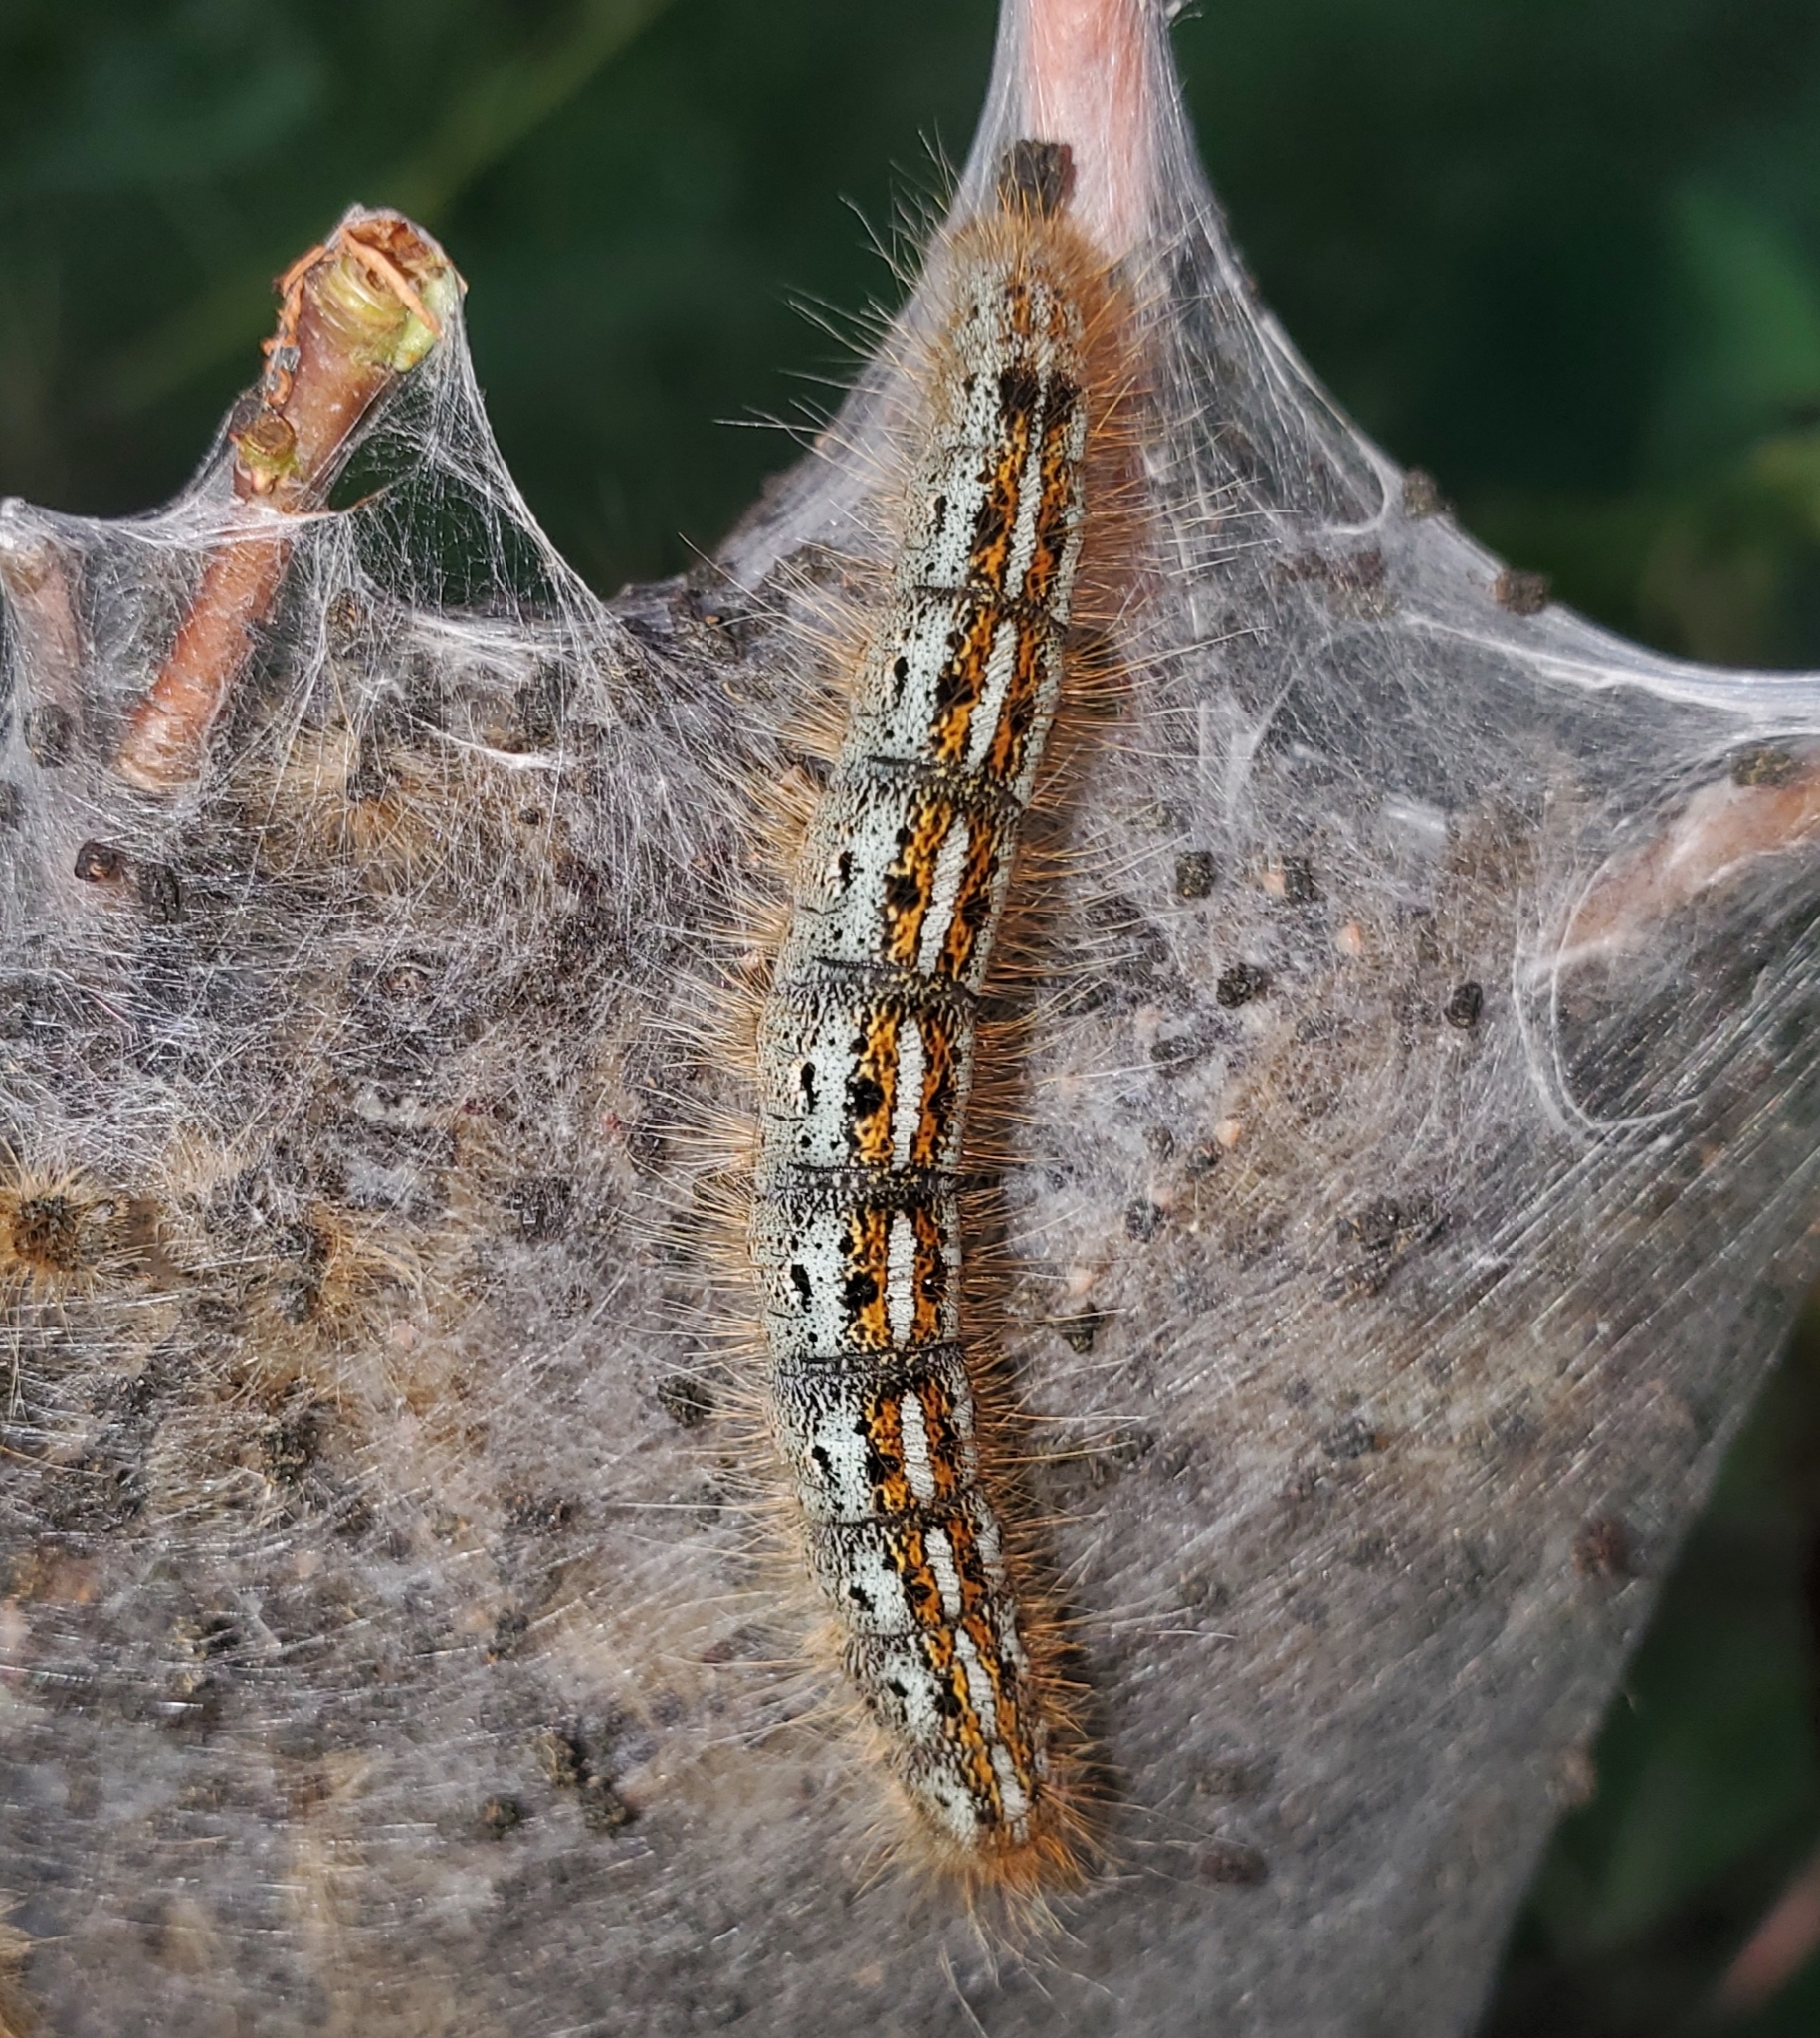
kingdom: Animalia
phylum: Arthropoda
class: Insecta
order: Lepidoptera
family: Lasiocampidae
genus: Malacosoma
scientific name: Malacosoma californica
